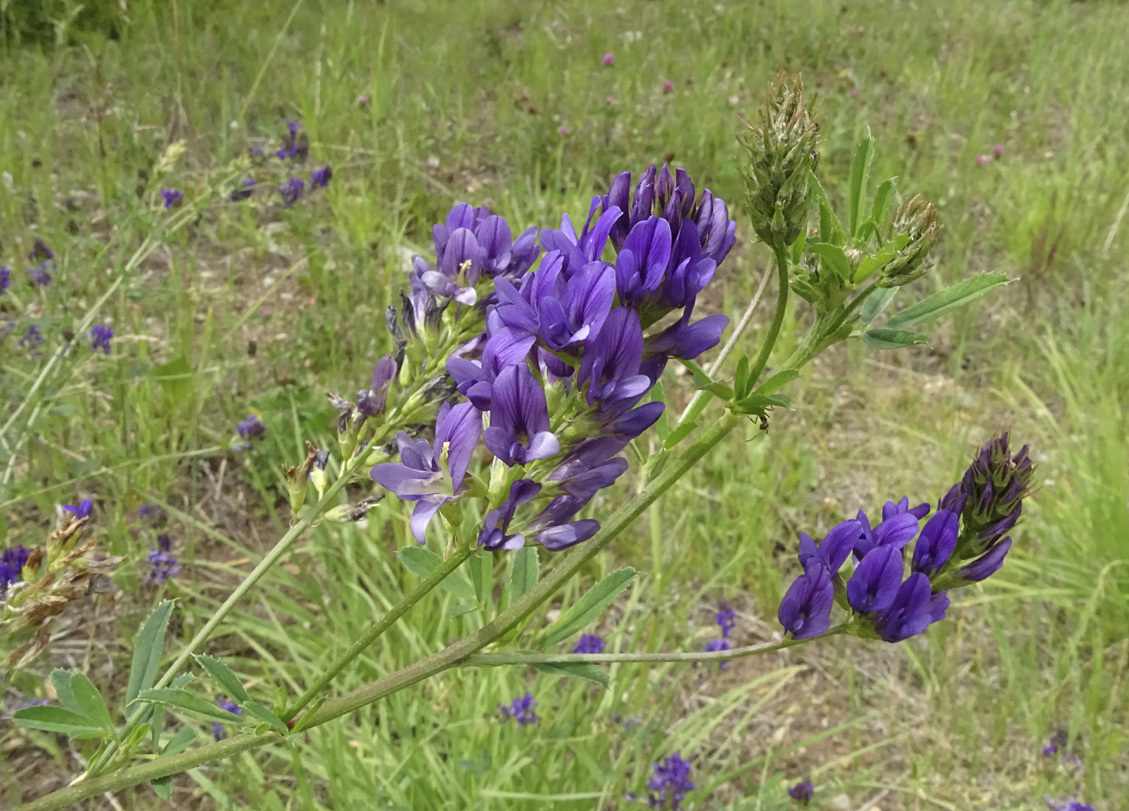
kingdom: Plantae
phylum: Tracheophyta
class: Magnoliopsida
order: Fabales
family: Fabaceae
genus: Medicago
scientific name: Medicago sativa
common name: Alfalfa
